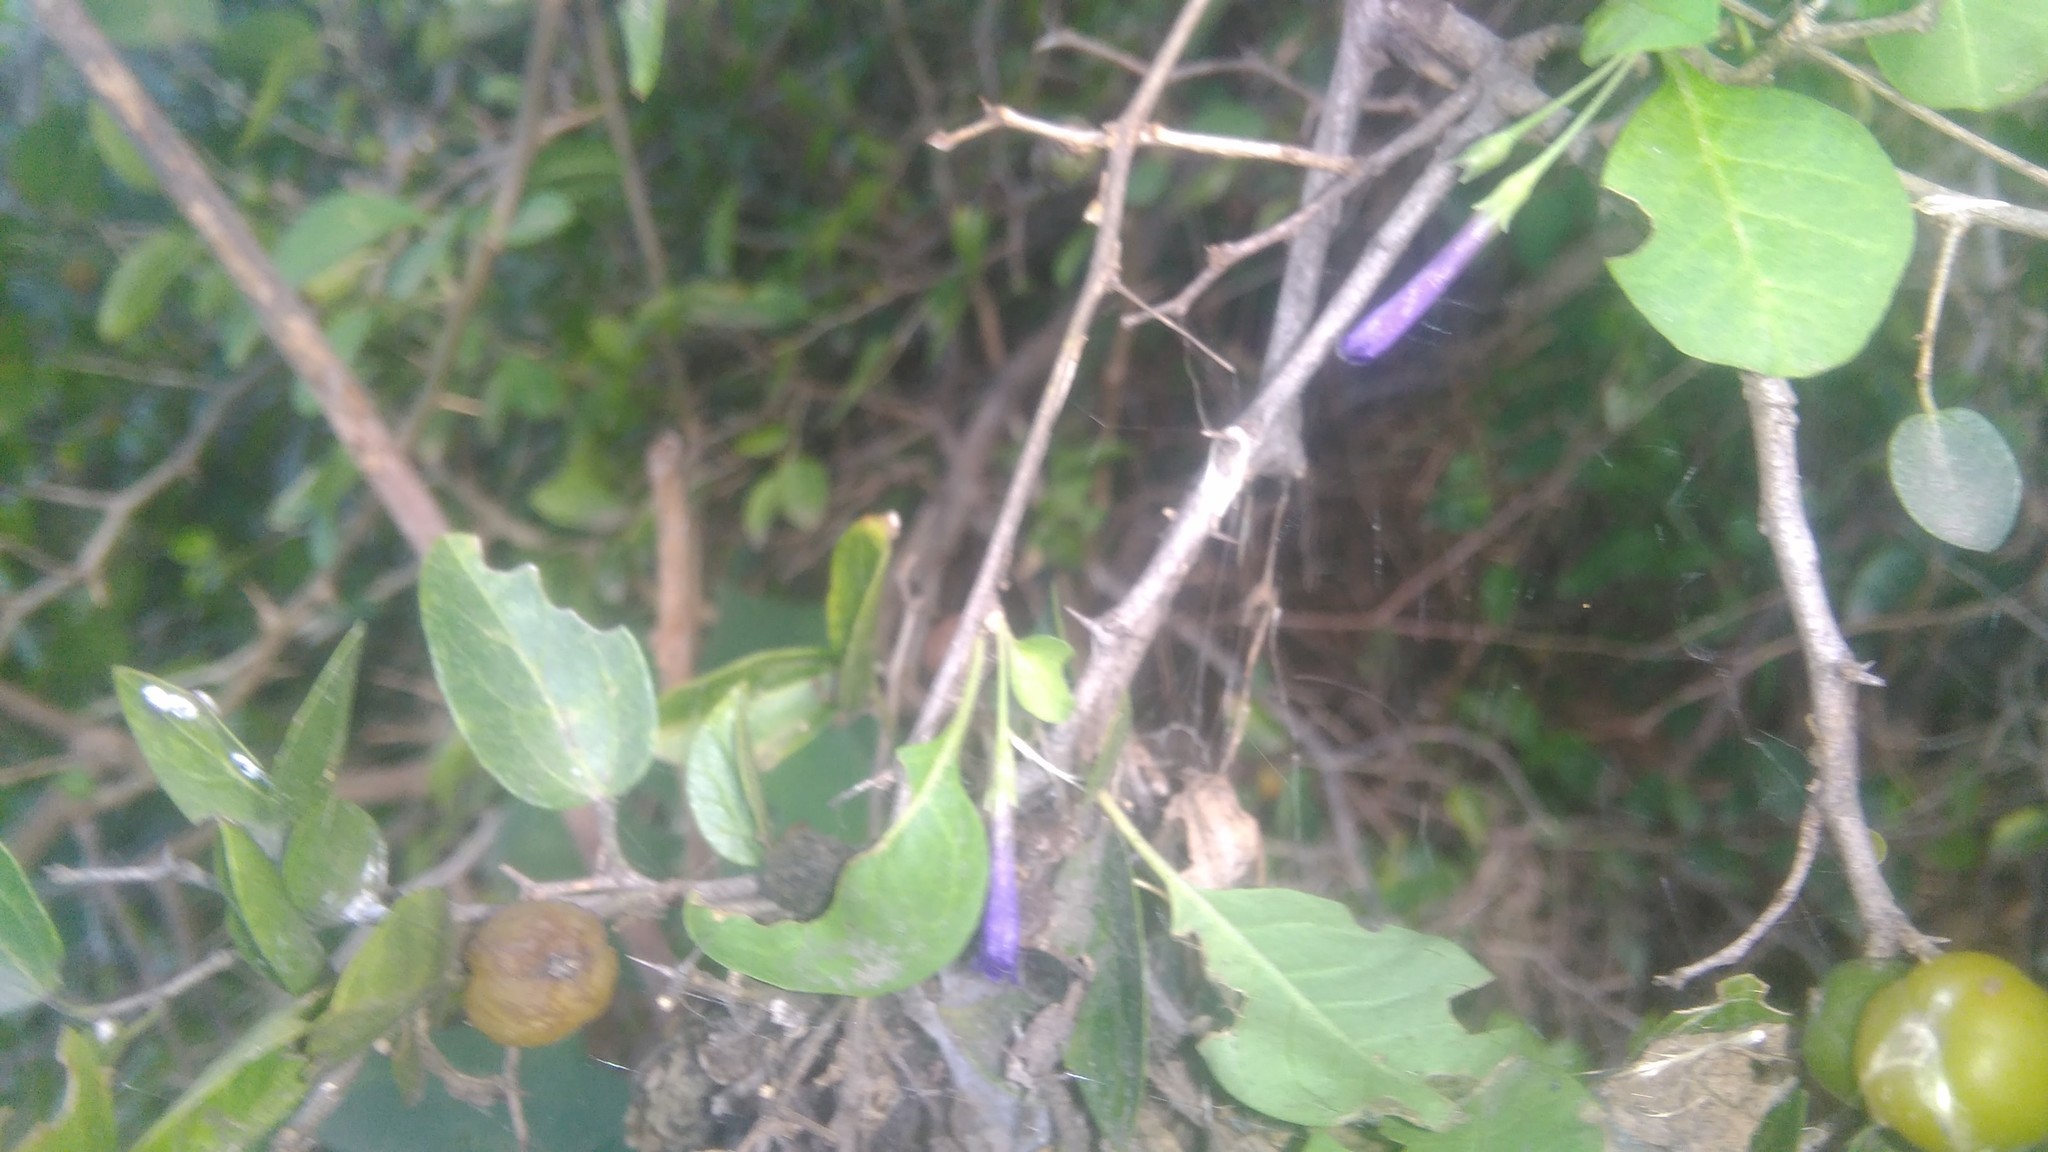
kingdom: Plantae
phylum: Tracheophyta
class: Magnoliopsida
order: Solanales
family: Solanaceae
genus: Lycium
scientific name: Lycium cestroides
